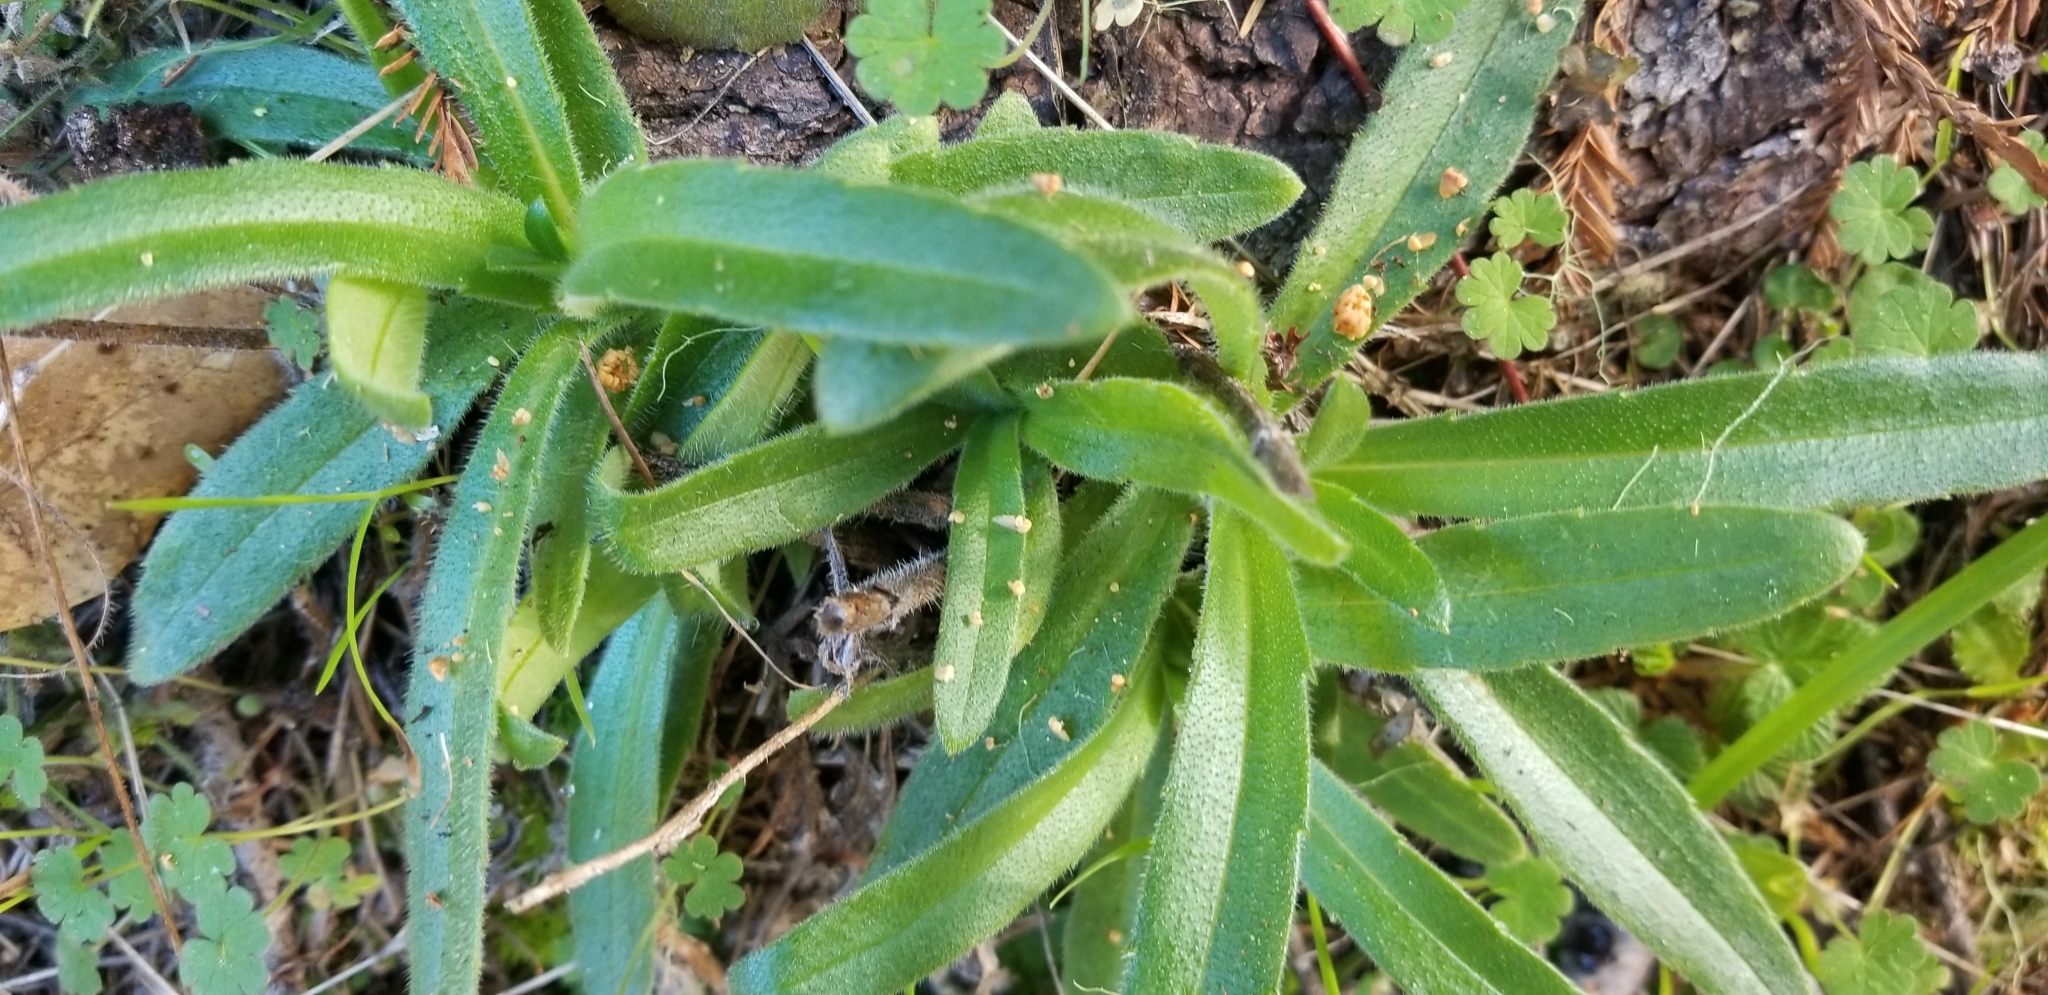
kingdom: Plantae
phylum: Tracheophyta
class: Magnoliopsida
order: Asterales
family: Asteraceae
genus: Anisocarpus
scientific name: Anisocarpus madioides
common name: Woodland madia
